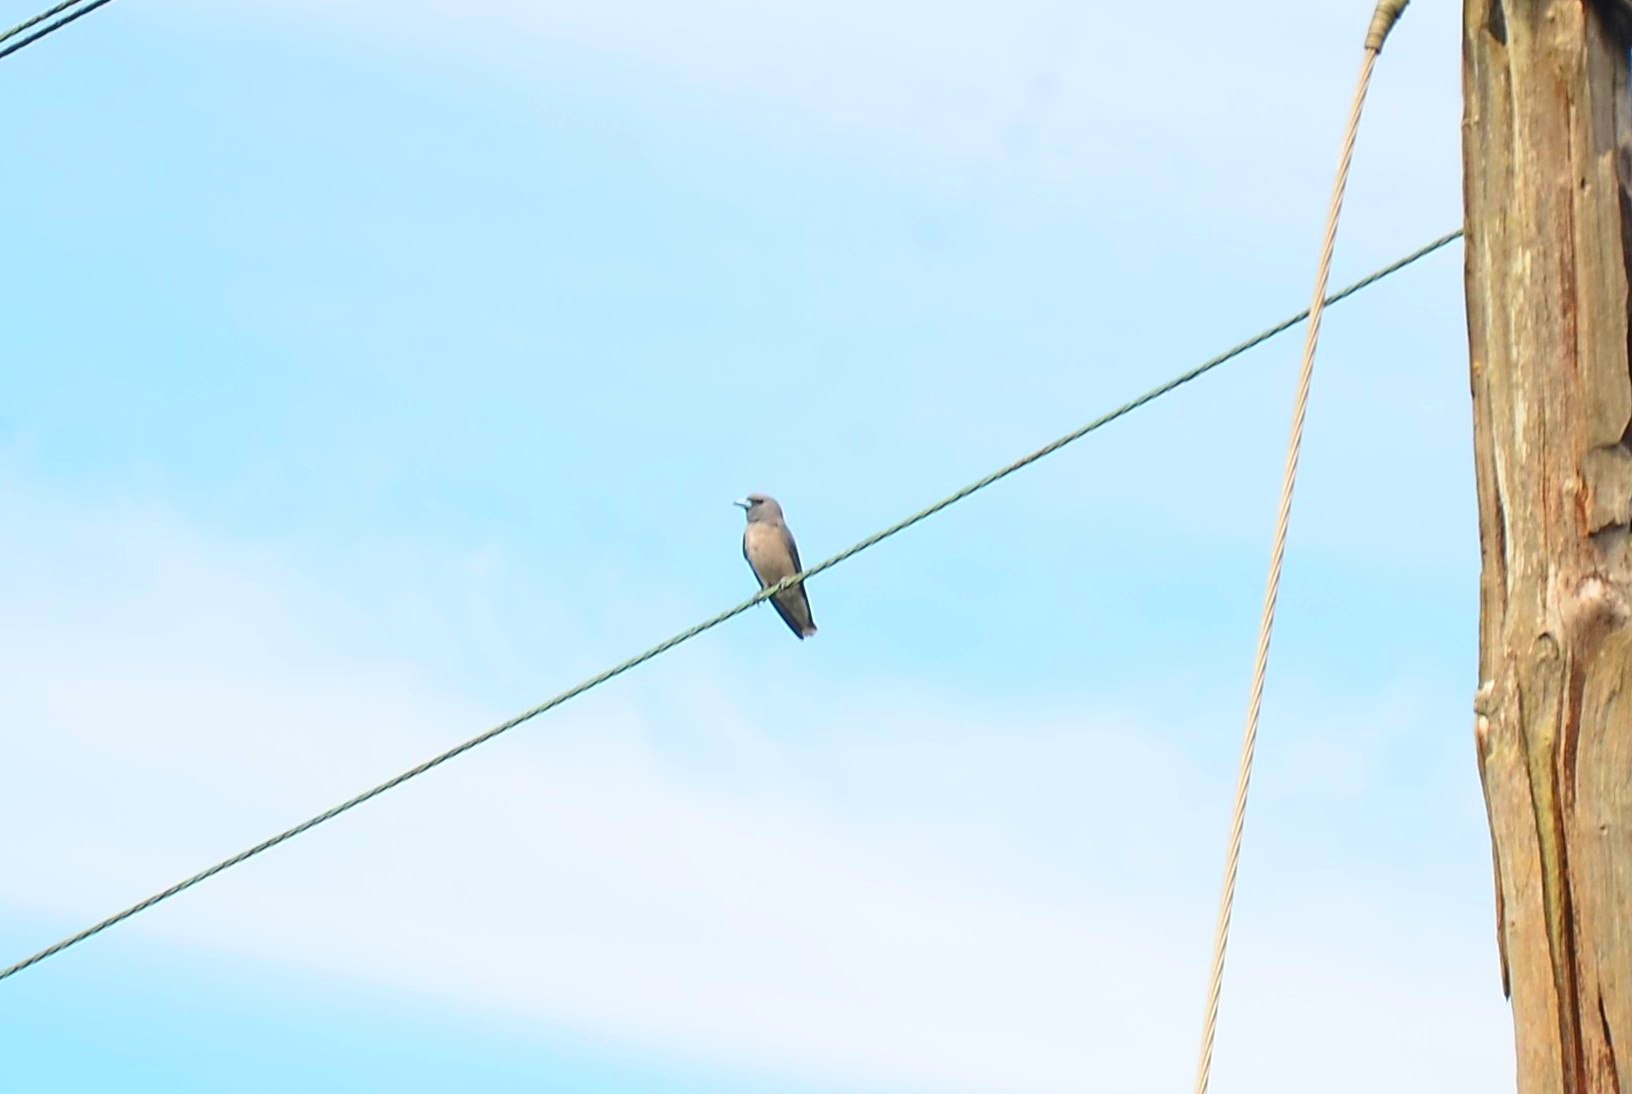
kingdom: Animalia
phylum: Chordata
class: Aves
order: Passeriformes
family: Artamidae
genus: Artamus
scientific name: Artamus fuscus
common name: Ashy woodswallow
